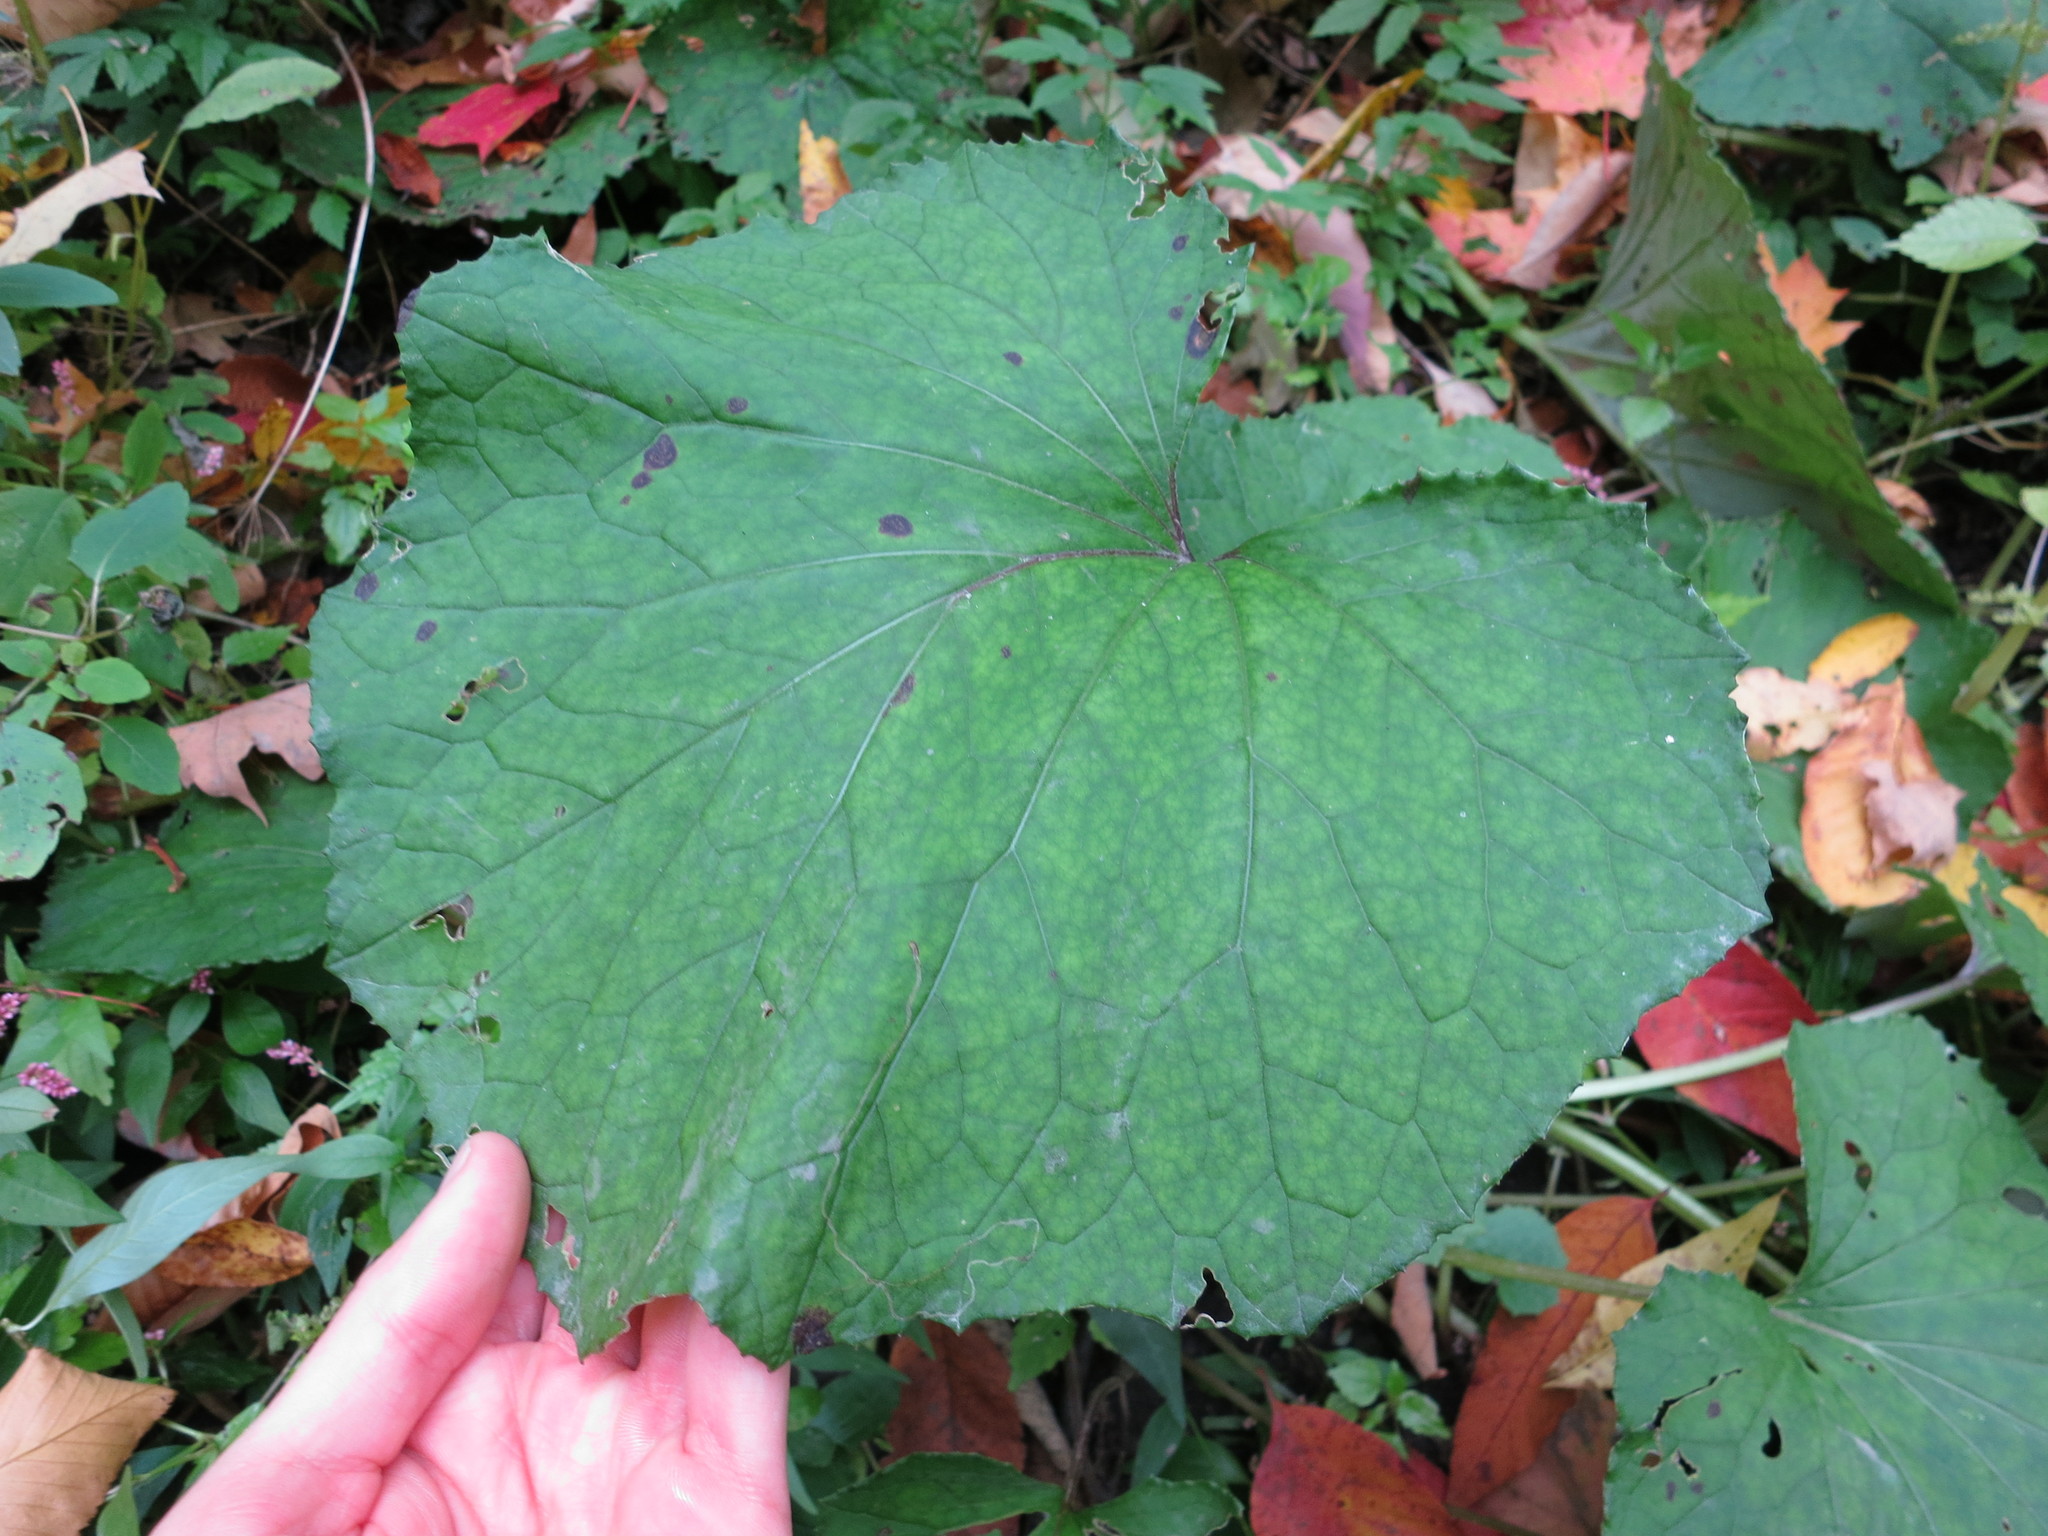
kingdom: Plantae
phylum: Tracheophyta
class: Magnoliopsida
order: Asterales
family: Asteraceae
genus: Tussilago
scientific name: Tussilago farfara
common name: Coltsfoot
